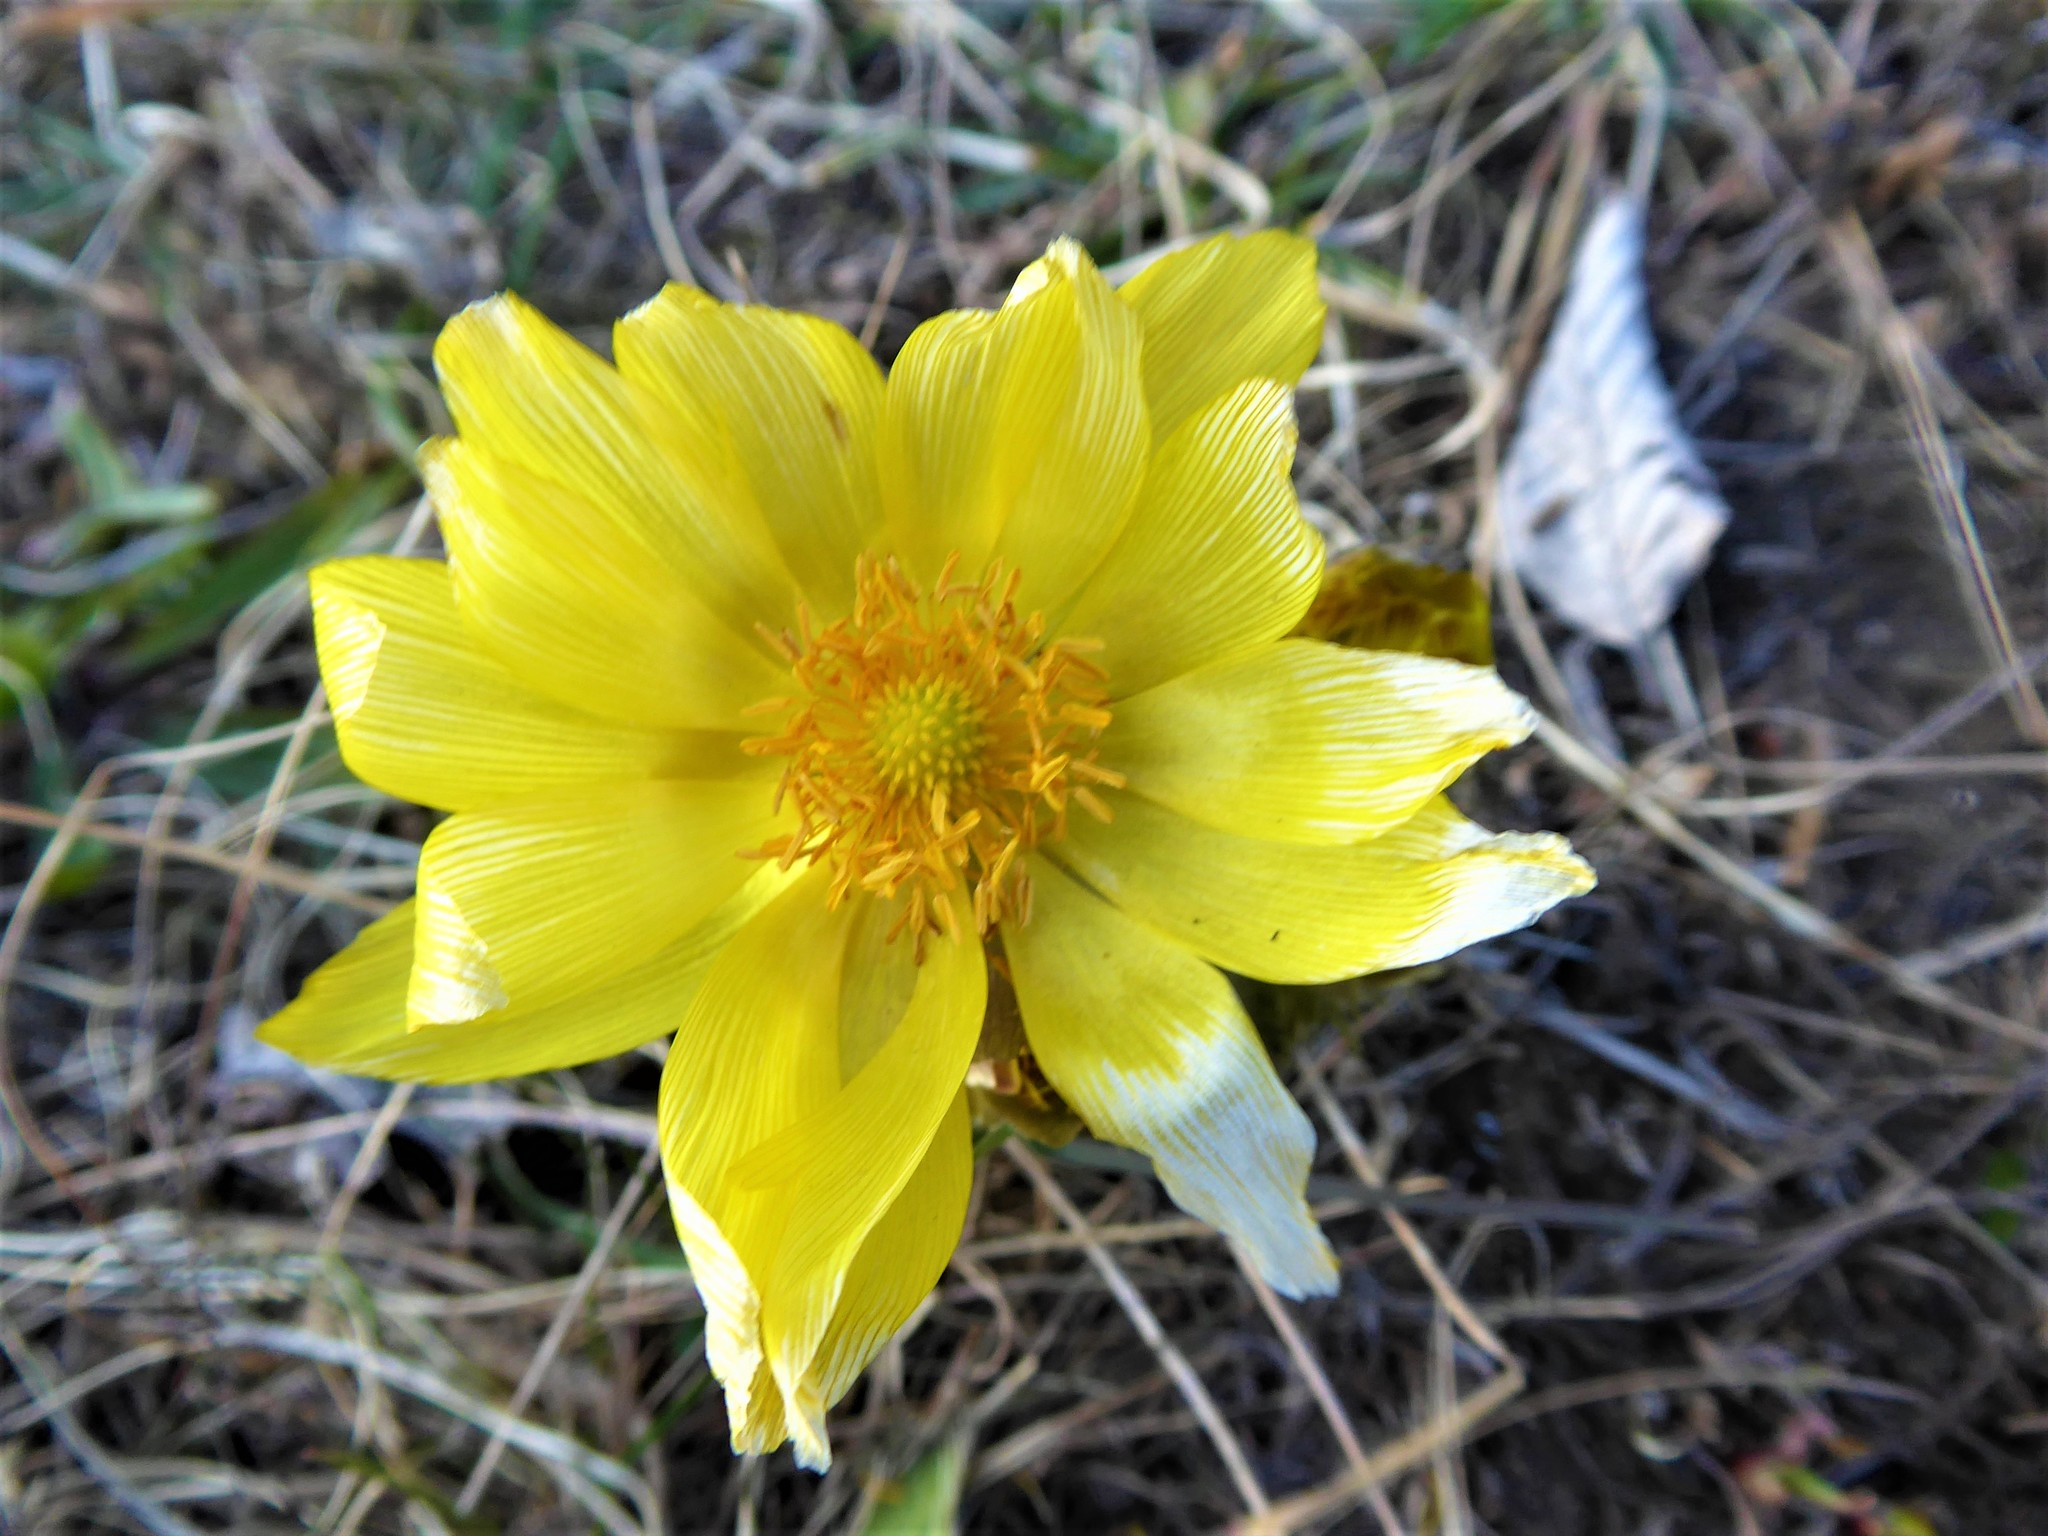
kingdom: Plantae
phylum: Tracheophyta
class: Magnoliopsida
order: Ranunculales
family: Ranunculaceae
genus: Adonis
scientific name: Adonis vernalis
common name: Yellow pheasants-eye
